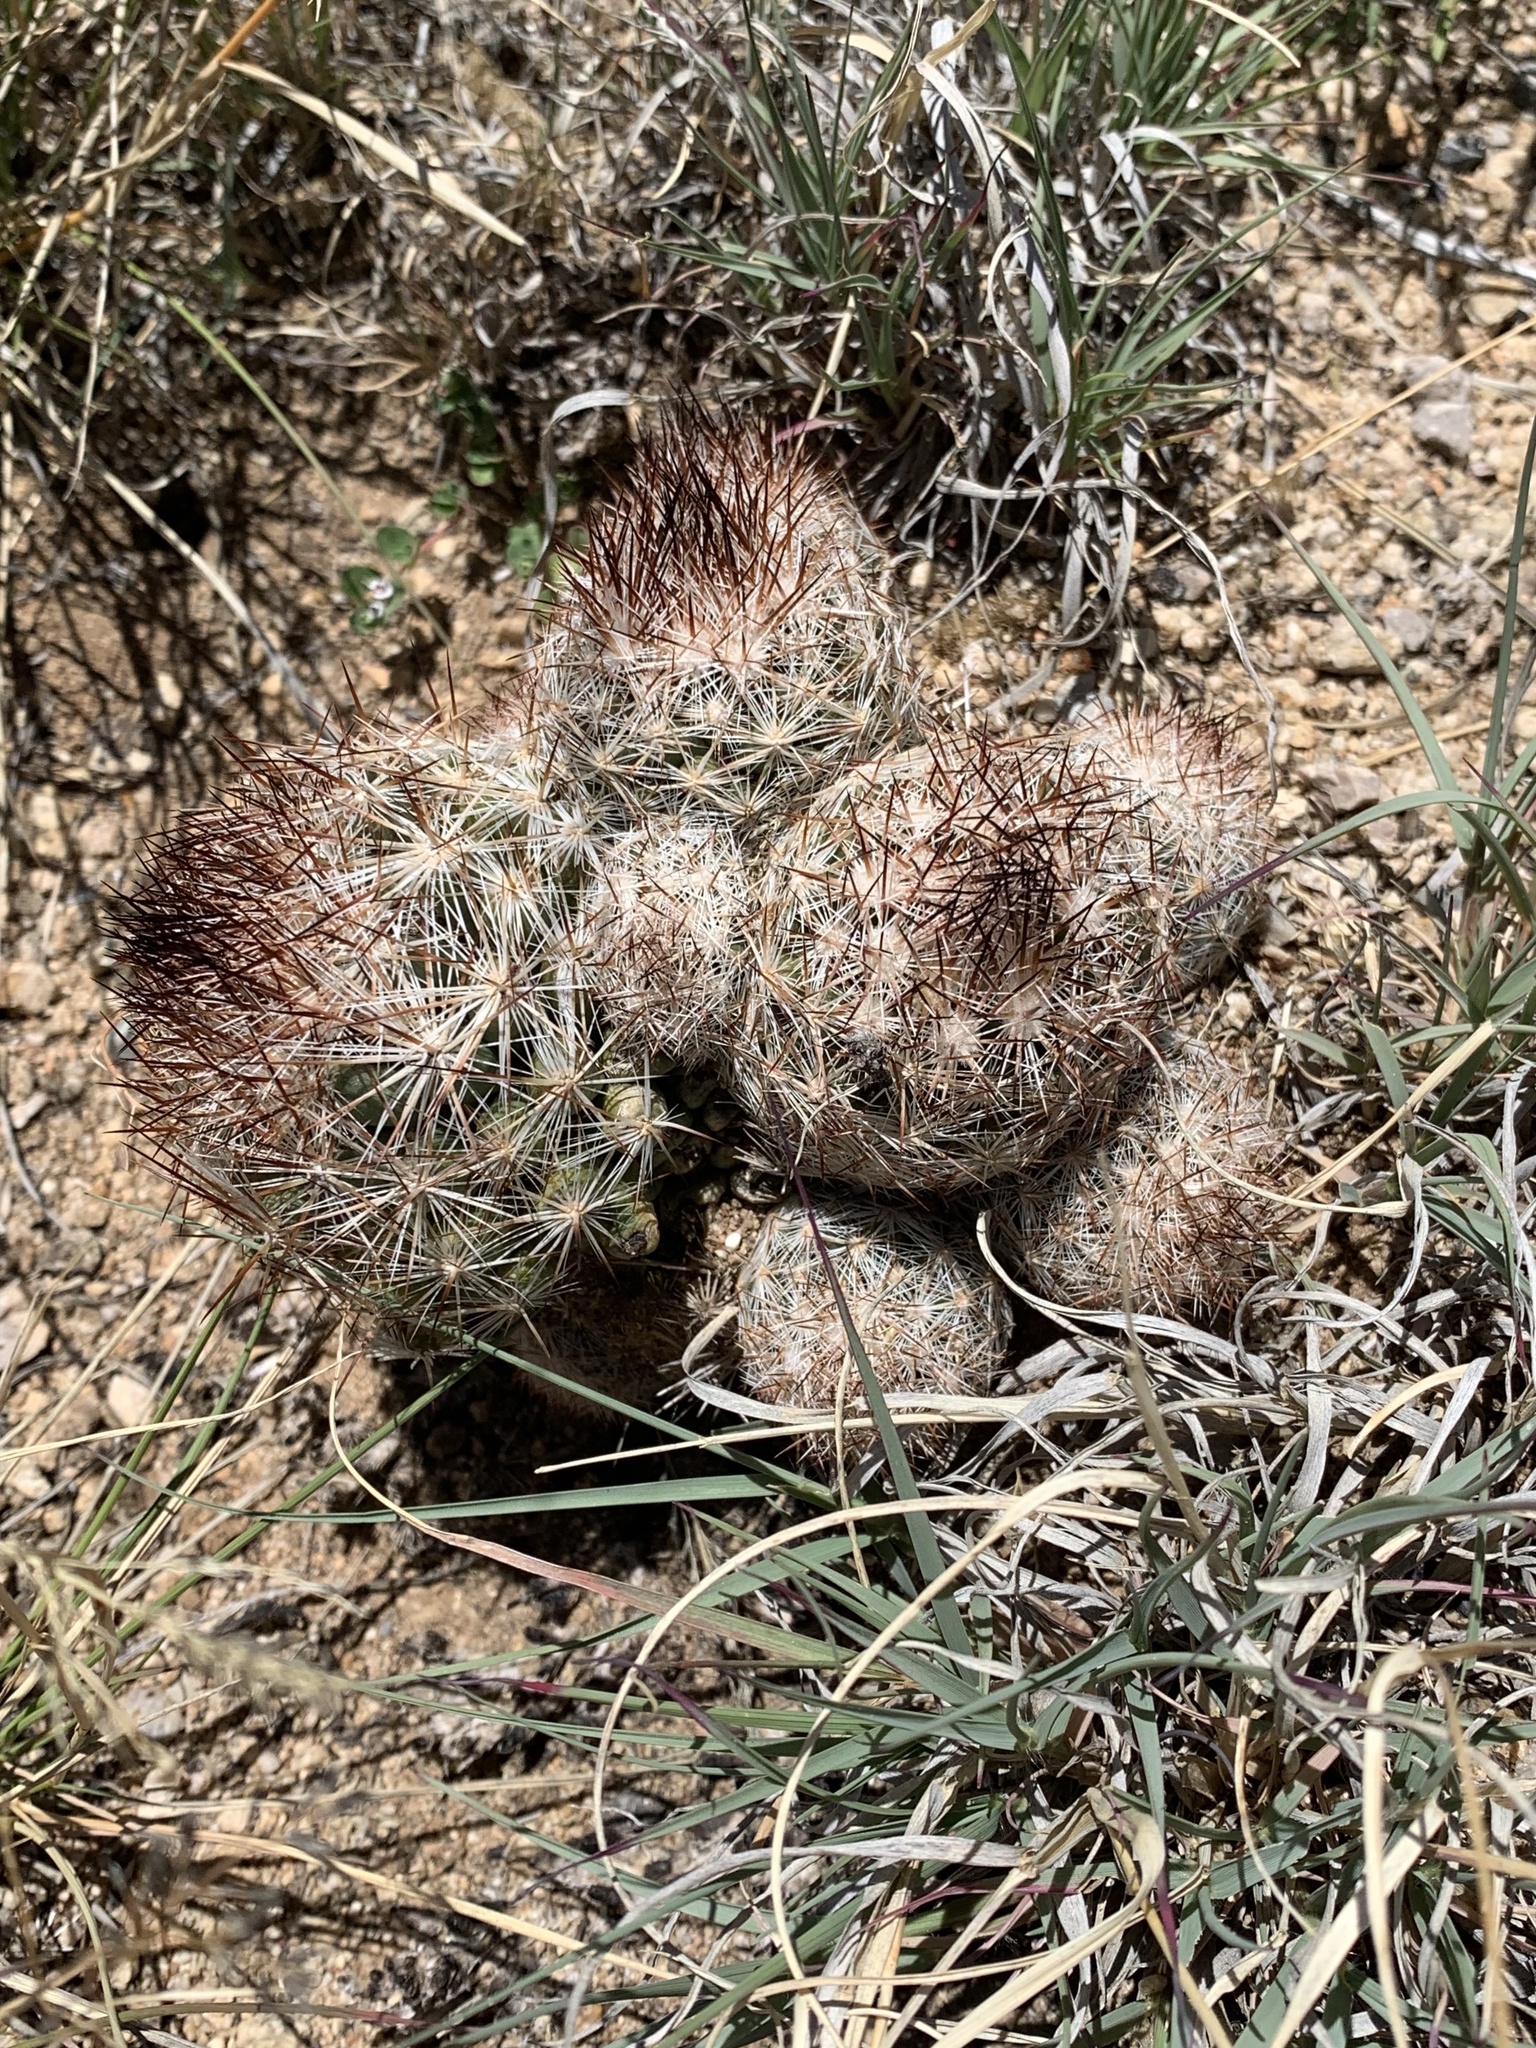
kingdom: Plantae
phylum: Tracheophyta
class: Magnoliopsida
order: Caryophyllales
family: Cactaceae
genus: Pelecyphora
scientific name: Pelecyphora vivipara
